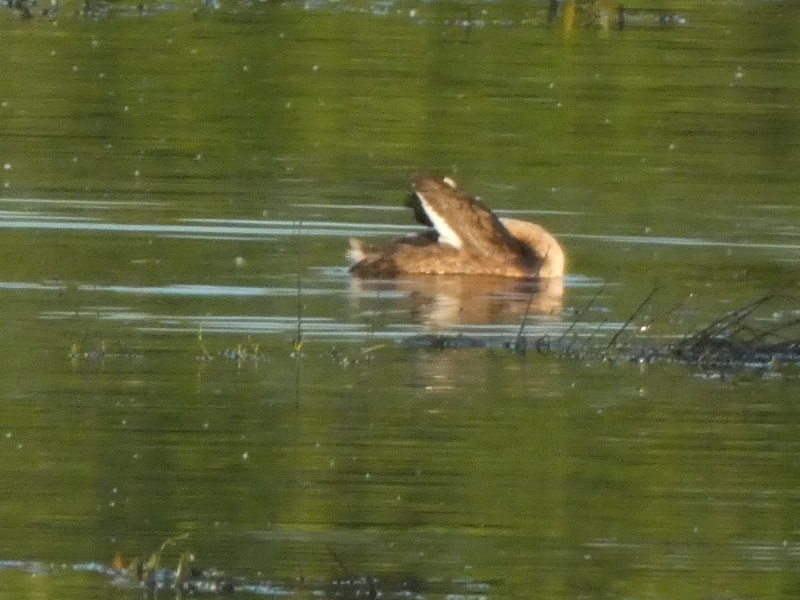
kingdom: Animalia
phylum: Chordata
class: Aves
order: Podicipediformes
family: Podicipedidae
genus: Podiceps
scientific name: Podiceps cristatus
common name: Great crested grebe
